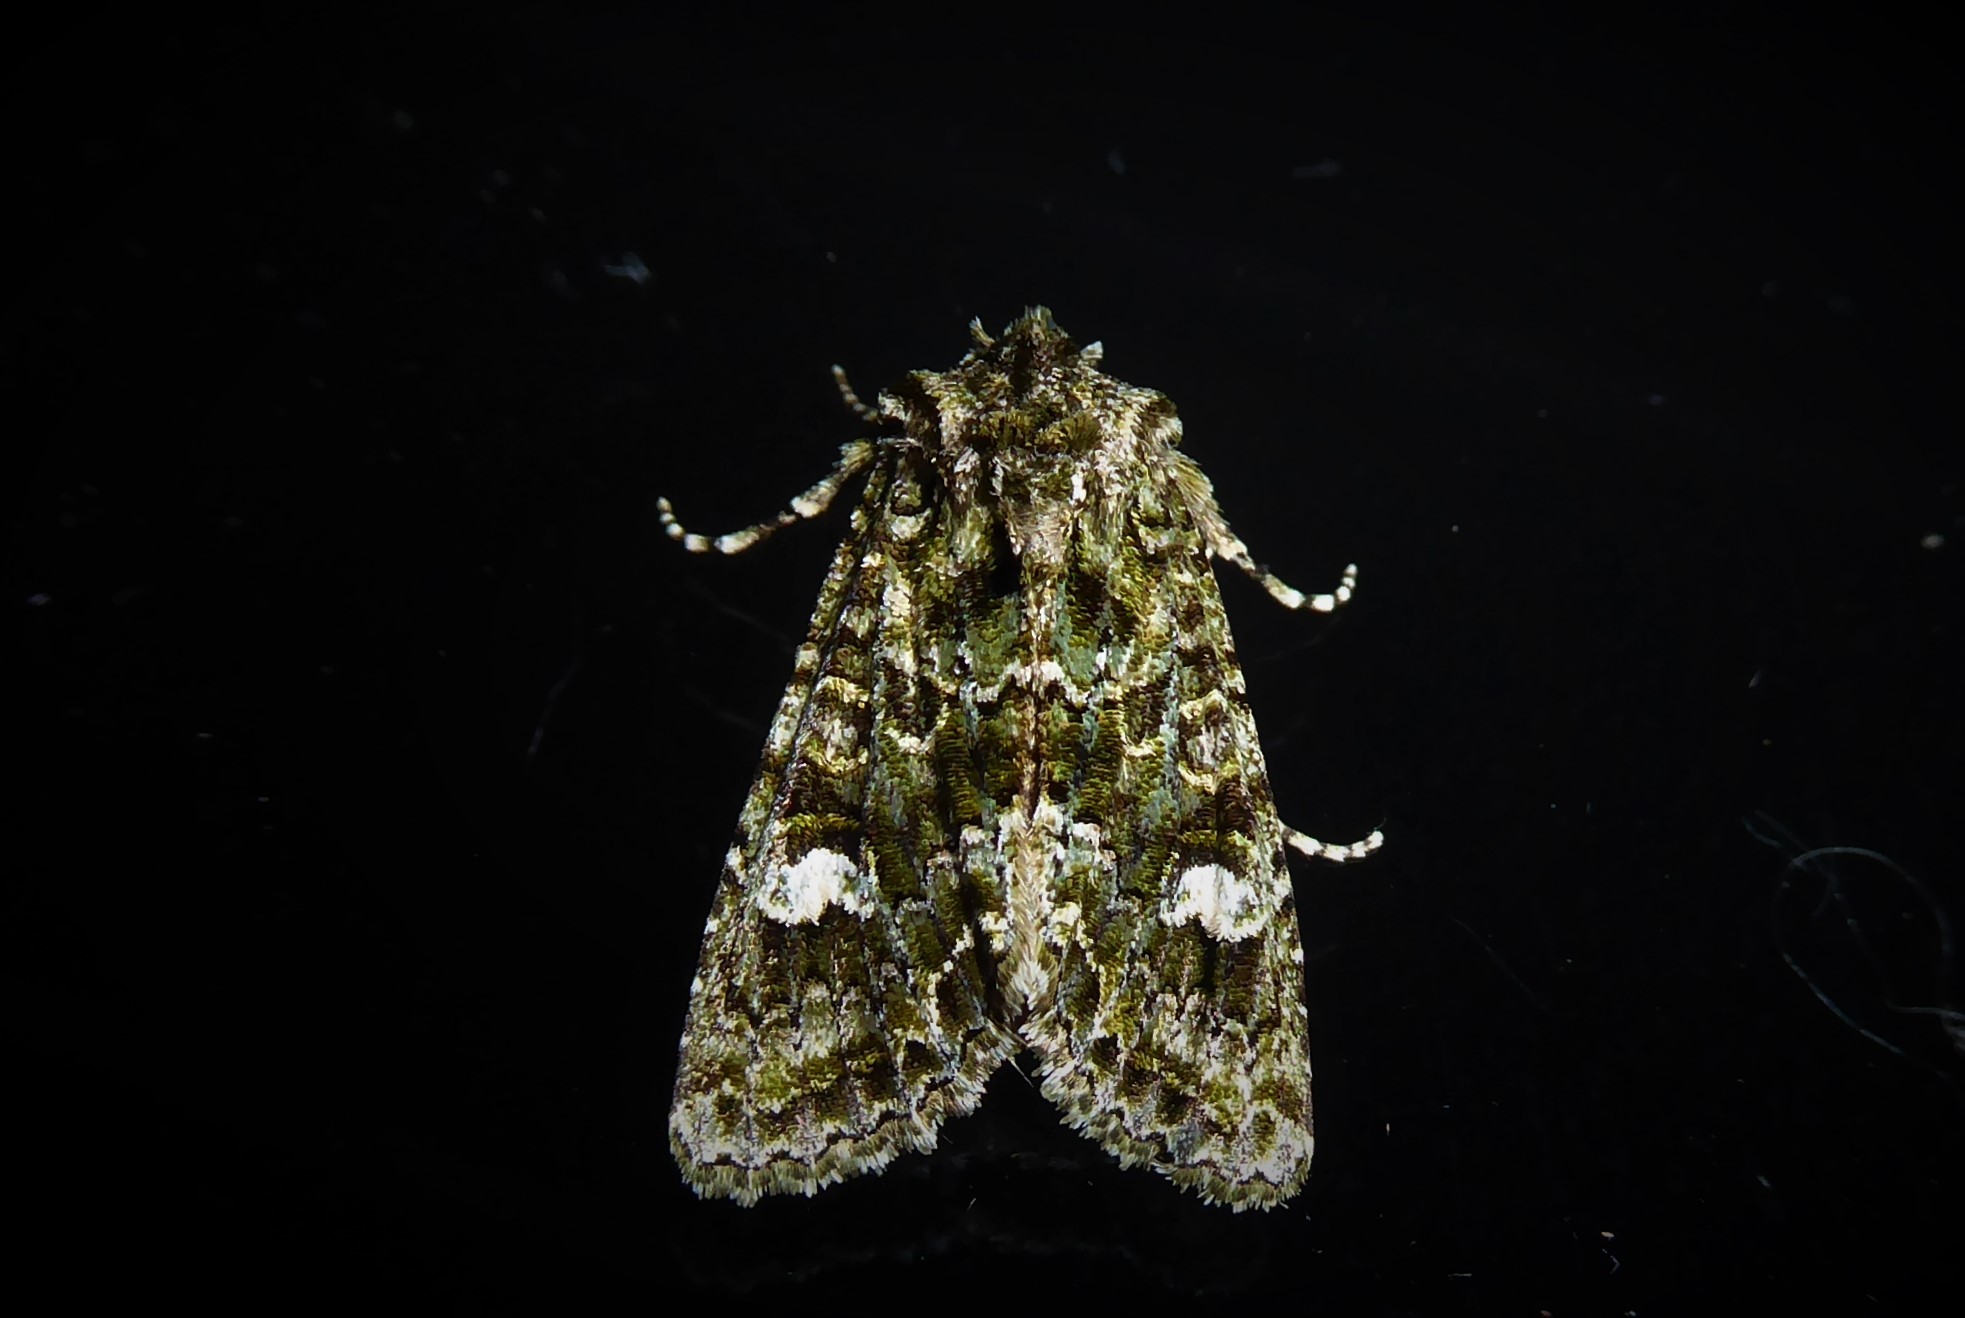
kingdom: Animalia
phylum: Arthropoda
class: Insecta
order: Lepidoptera
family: Noctuidae
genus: Ichneutica
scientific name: Ichneutica
